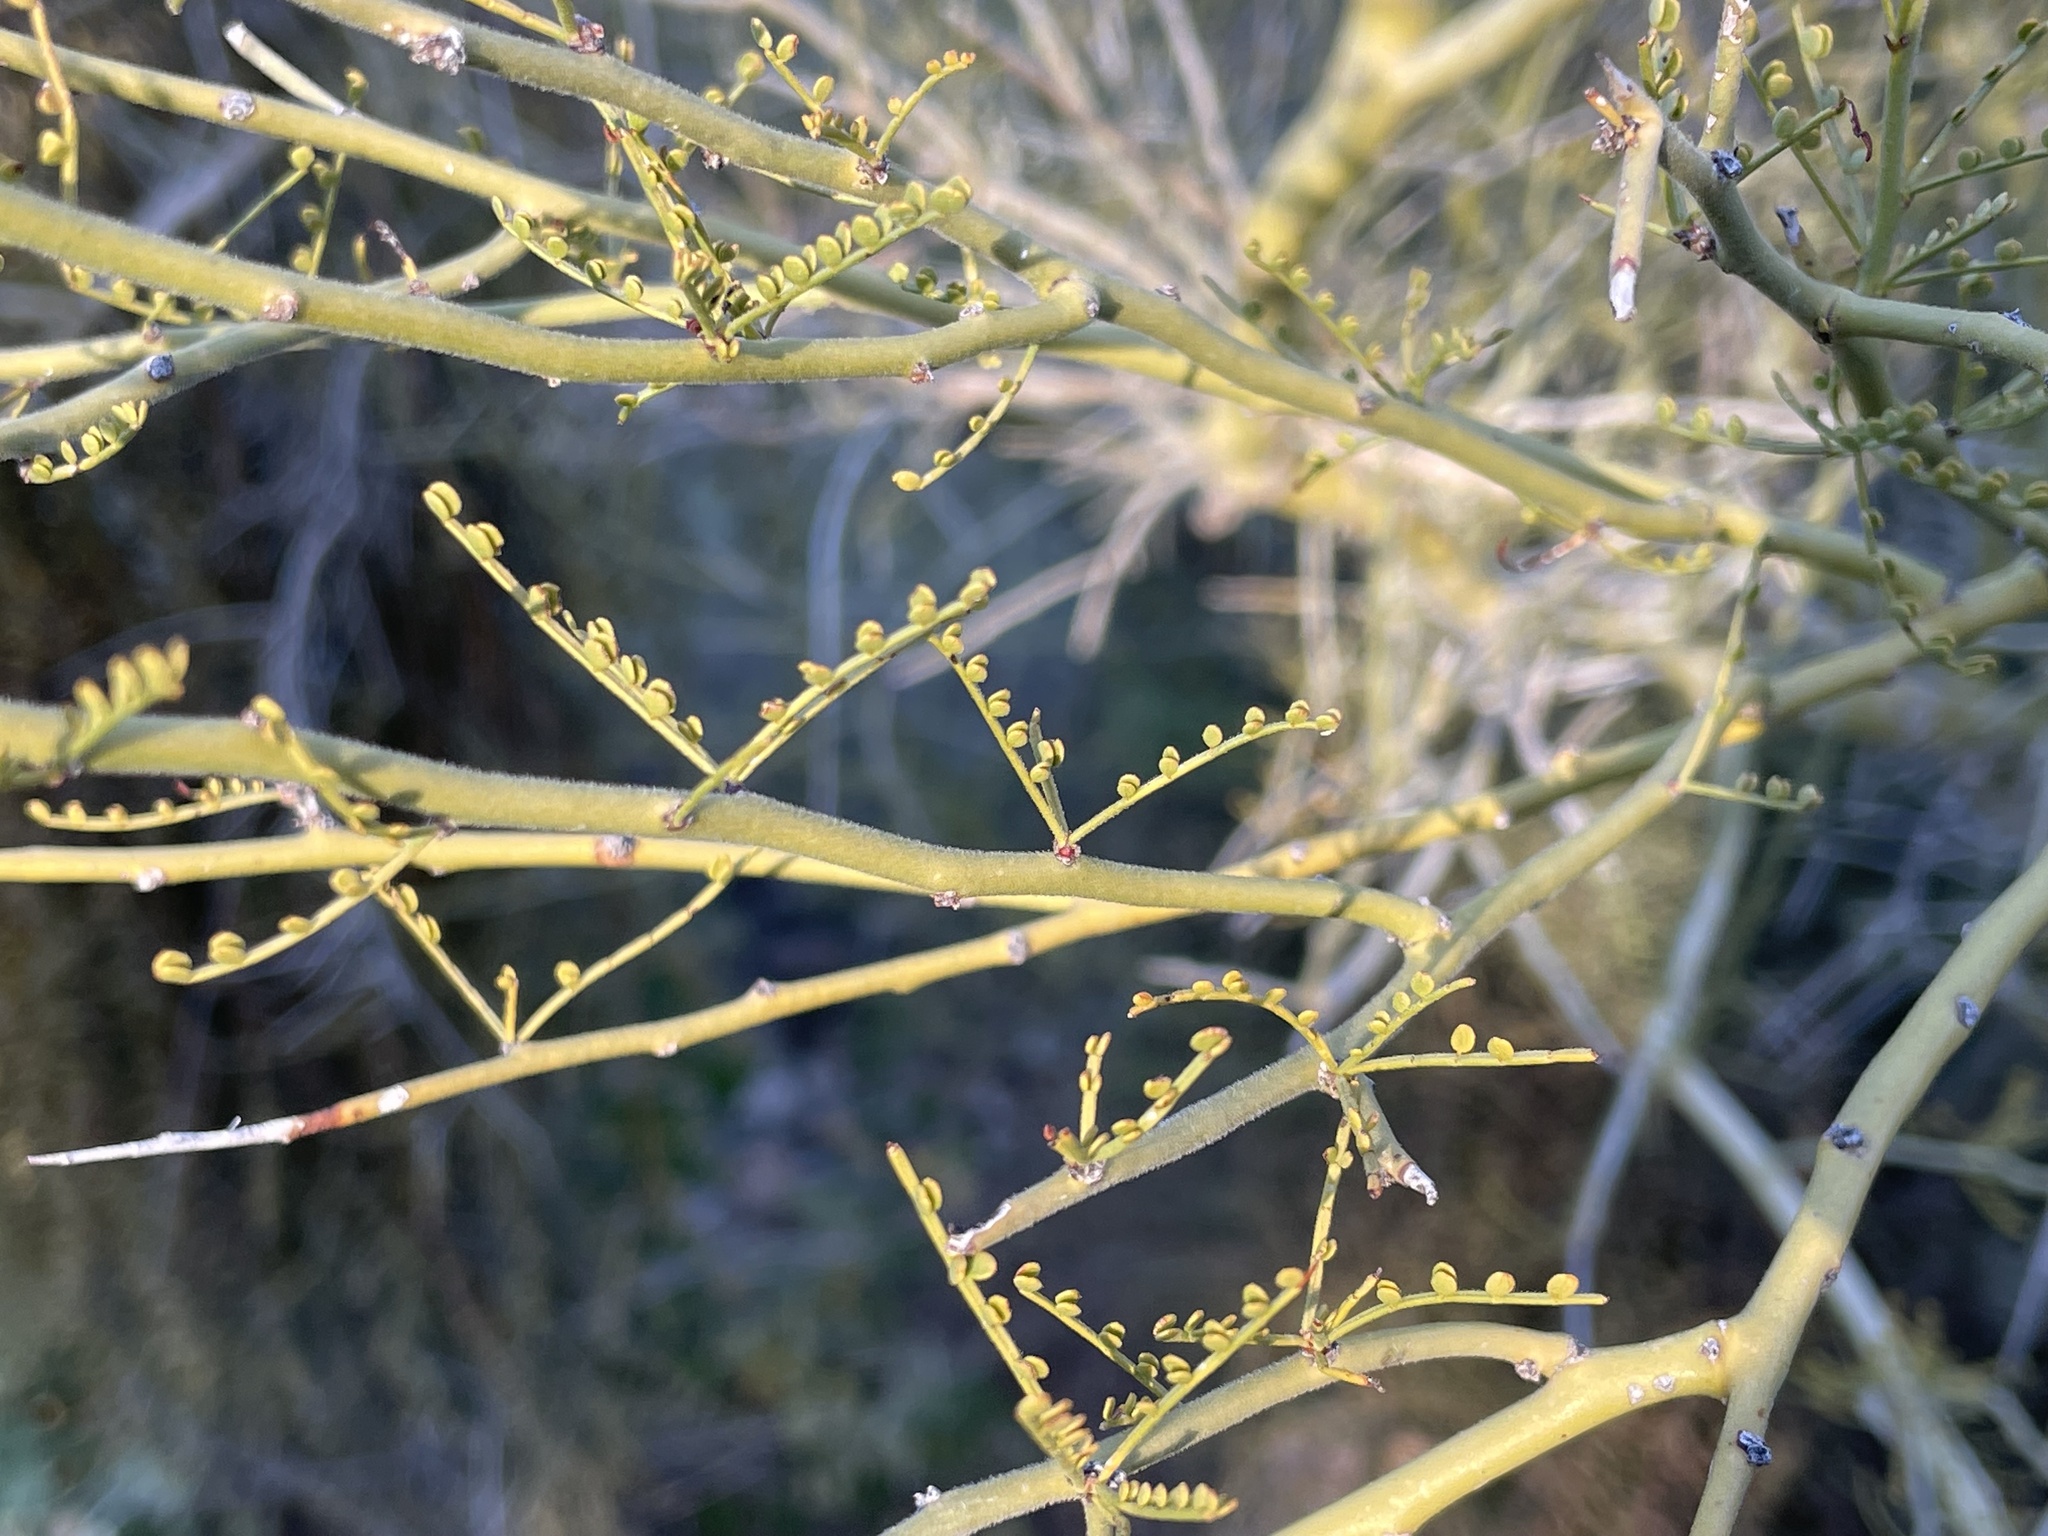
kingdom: Plantae
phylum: Tracheophyta
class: Magnoliopsida
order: Fabales
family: Fabaceae
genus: Parkinsonia
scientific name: Parkinsonia microphylla
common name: Yellow paloverde
